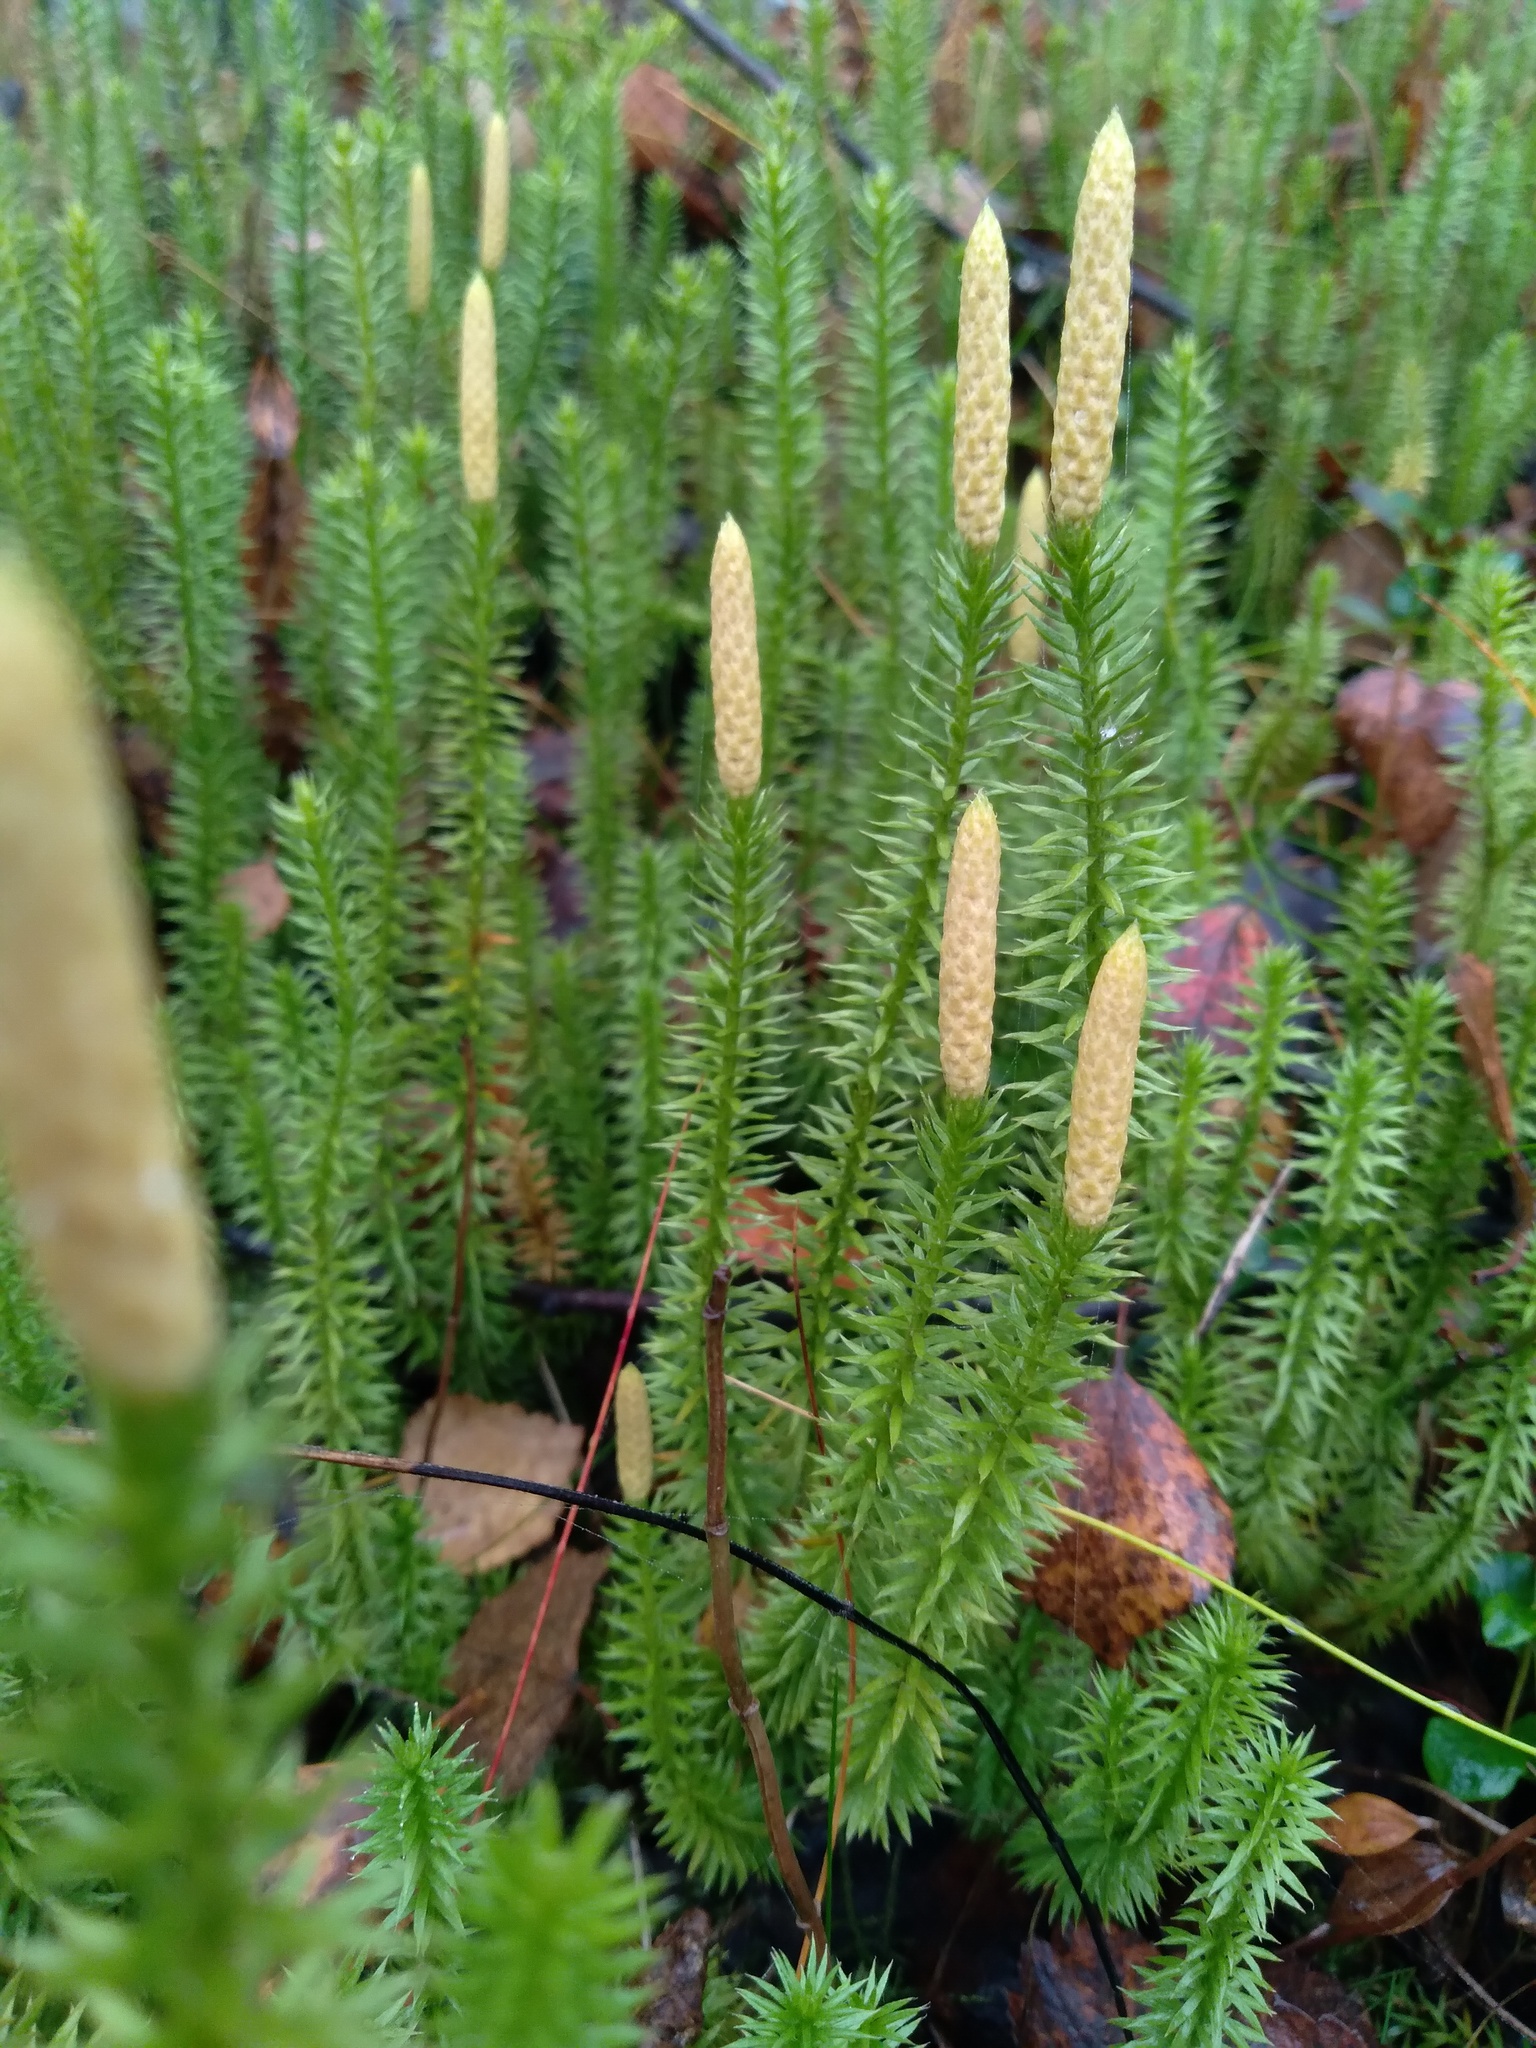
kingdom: Plantae
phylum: Tracheophyta
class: Lycopodiopsida
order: Lycopodiales
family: Lycopodiaceae
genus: Spinulum
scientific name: Spinulum annotinum
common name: Interrupted club-moss
